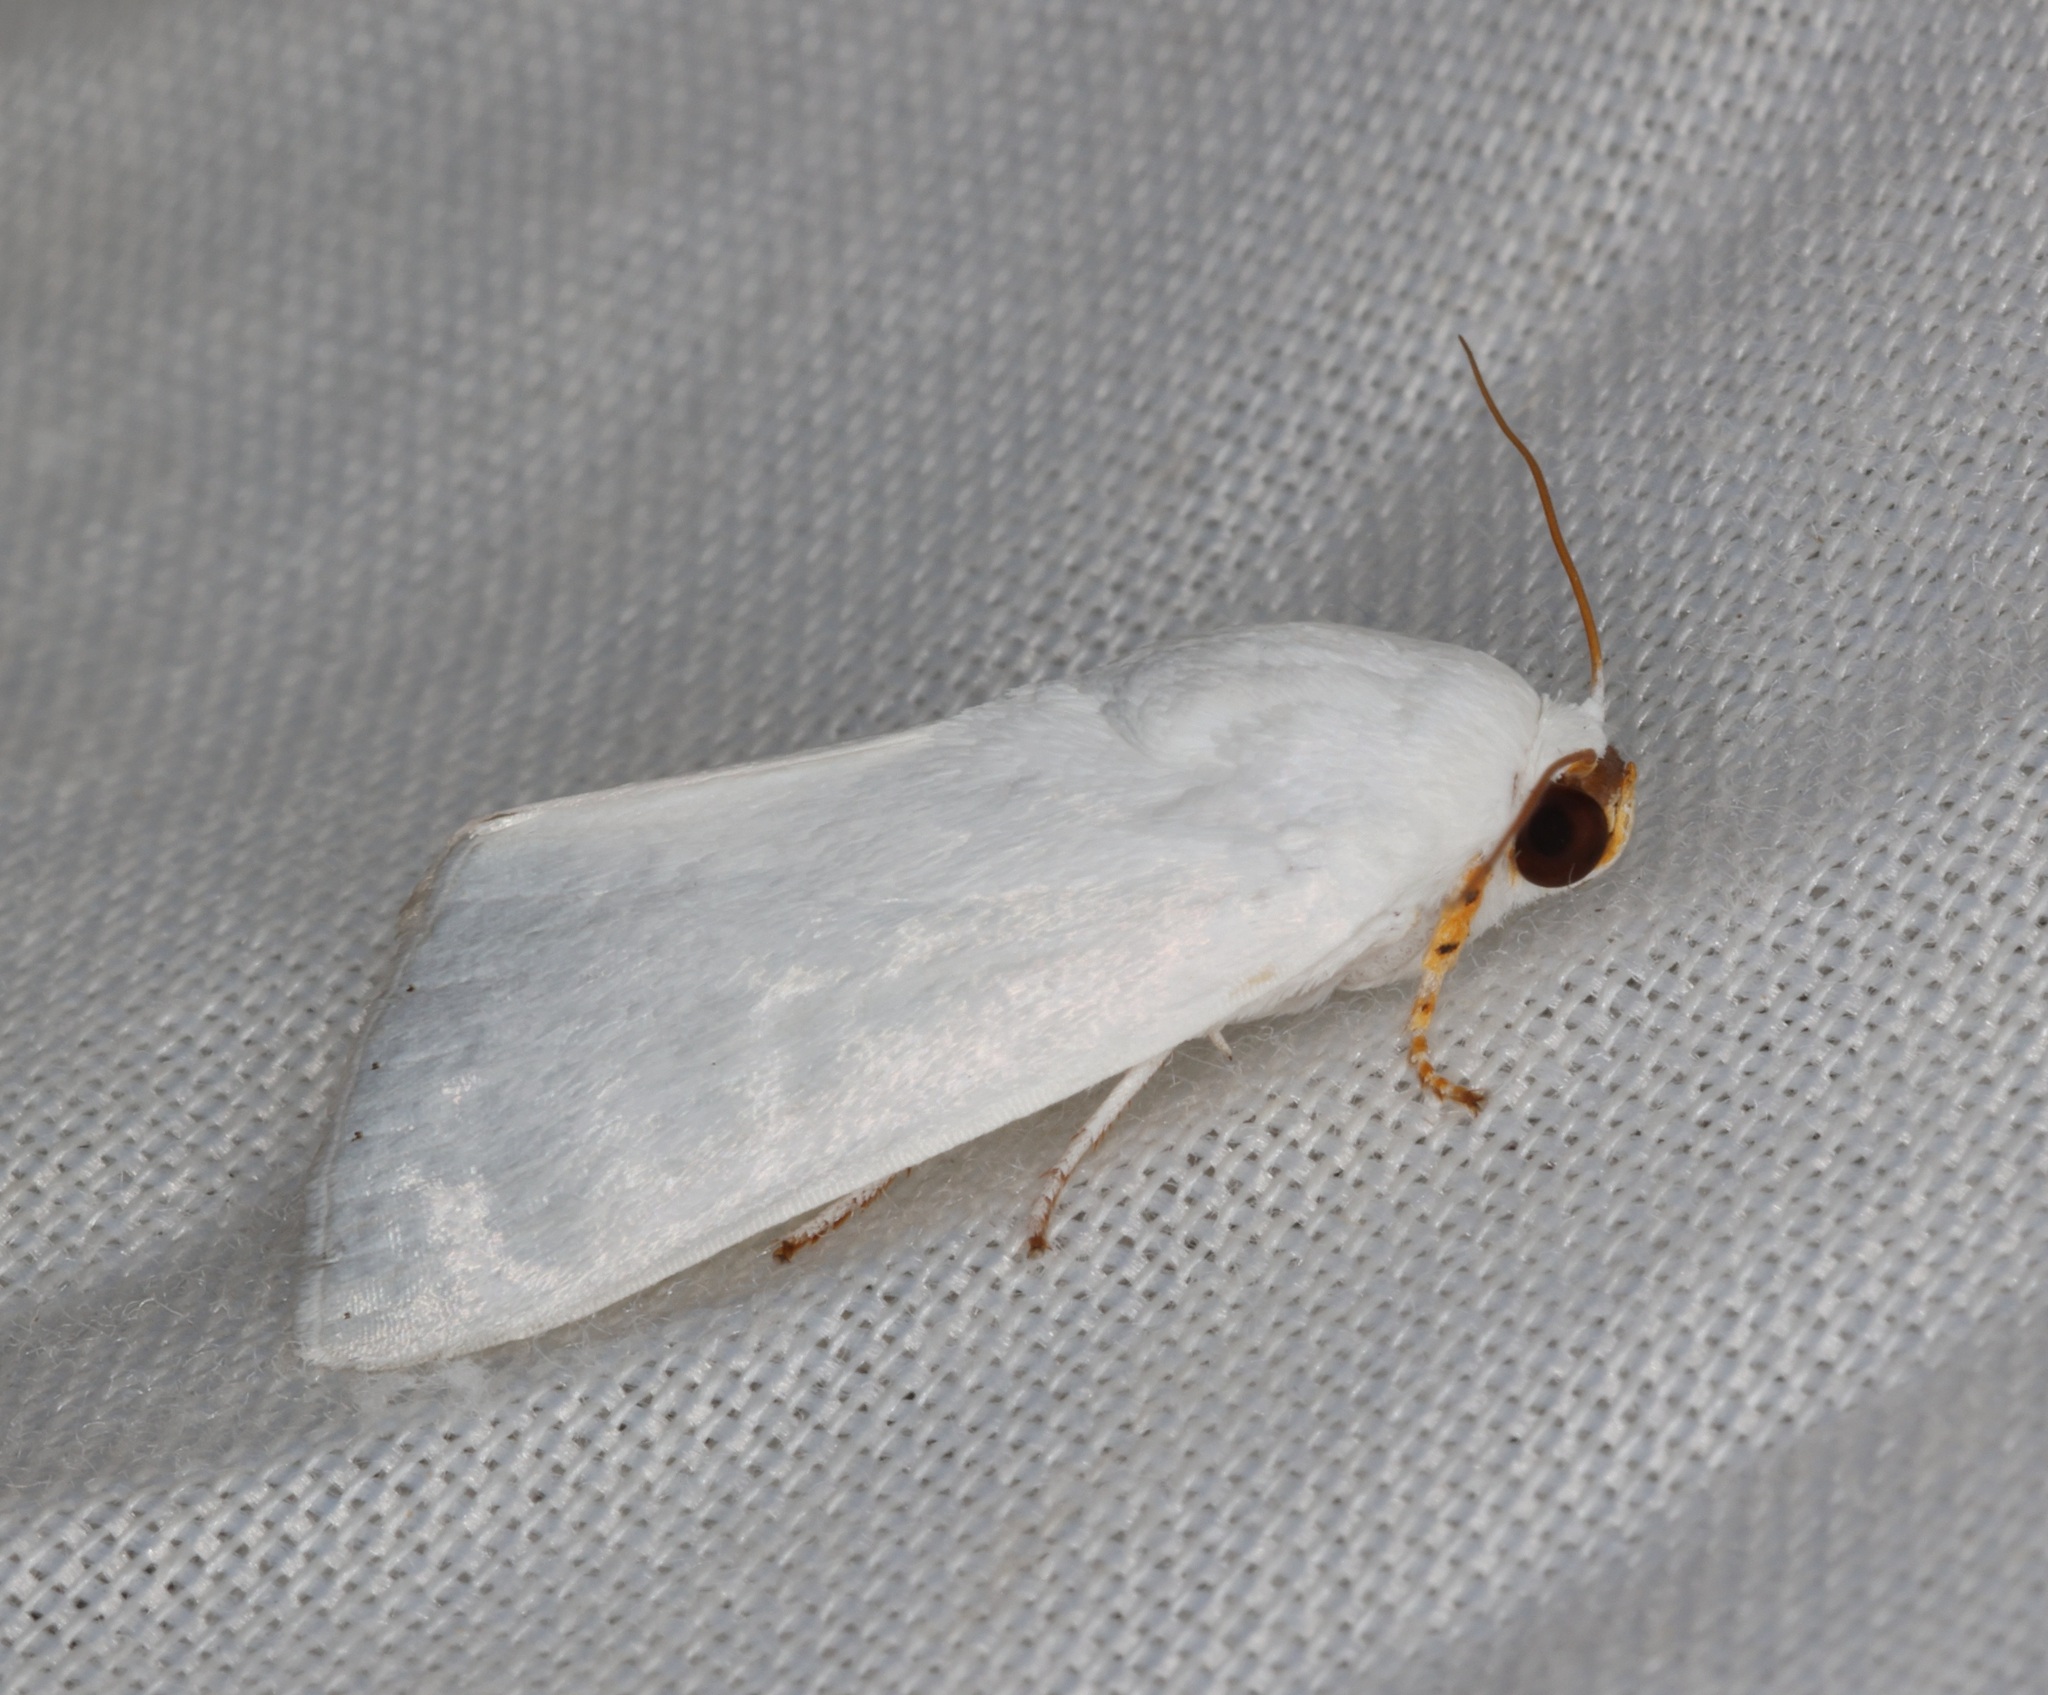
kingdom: Animalia
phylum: Arthropoda
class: Insecta
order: Lepidoptera
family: Noctuidae
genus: Chasmina
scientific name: Chasmina candida
